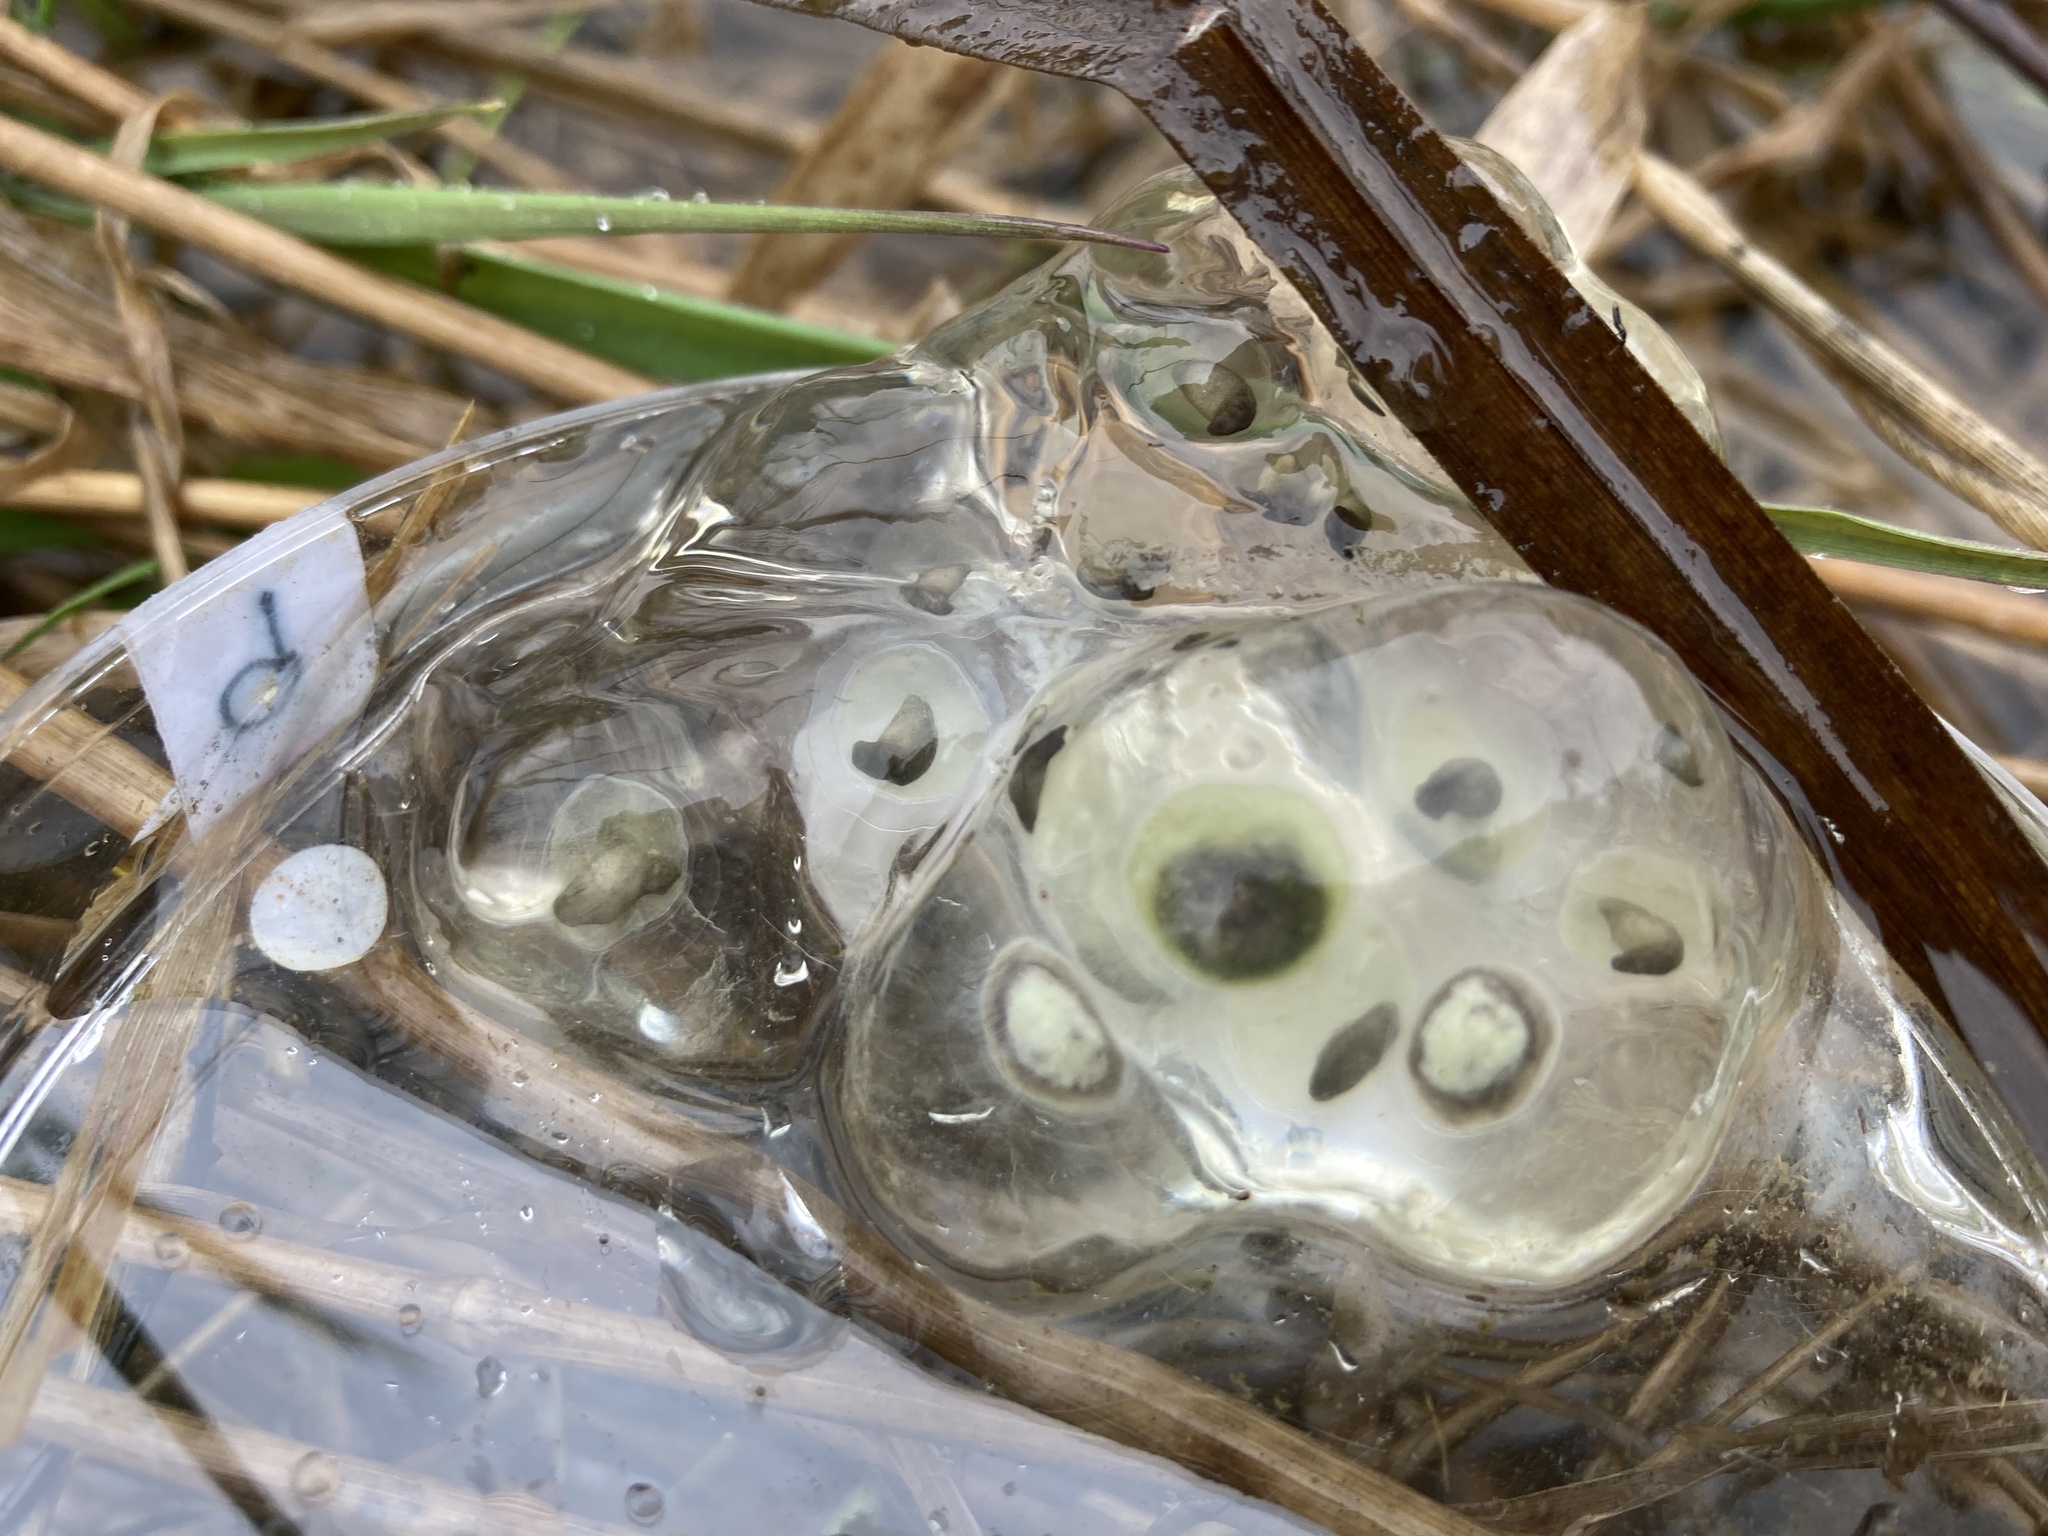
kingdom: Animalia
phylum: Chordata
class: Amphibia
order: Caudata
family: Ambystomatidae
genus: Ambystoma
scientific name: Ambystoma maculatum
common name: Spotted salamander
